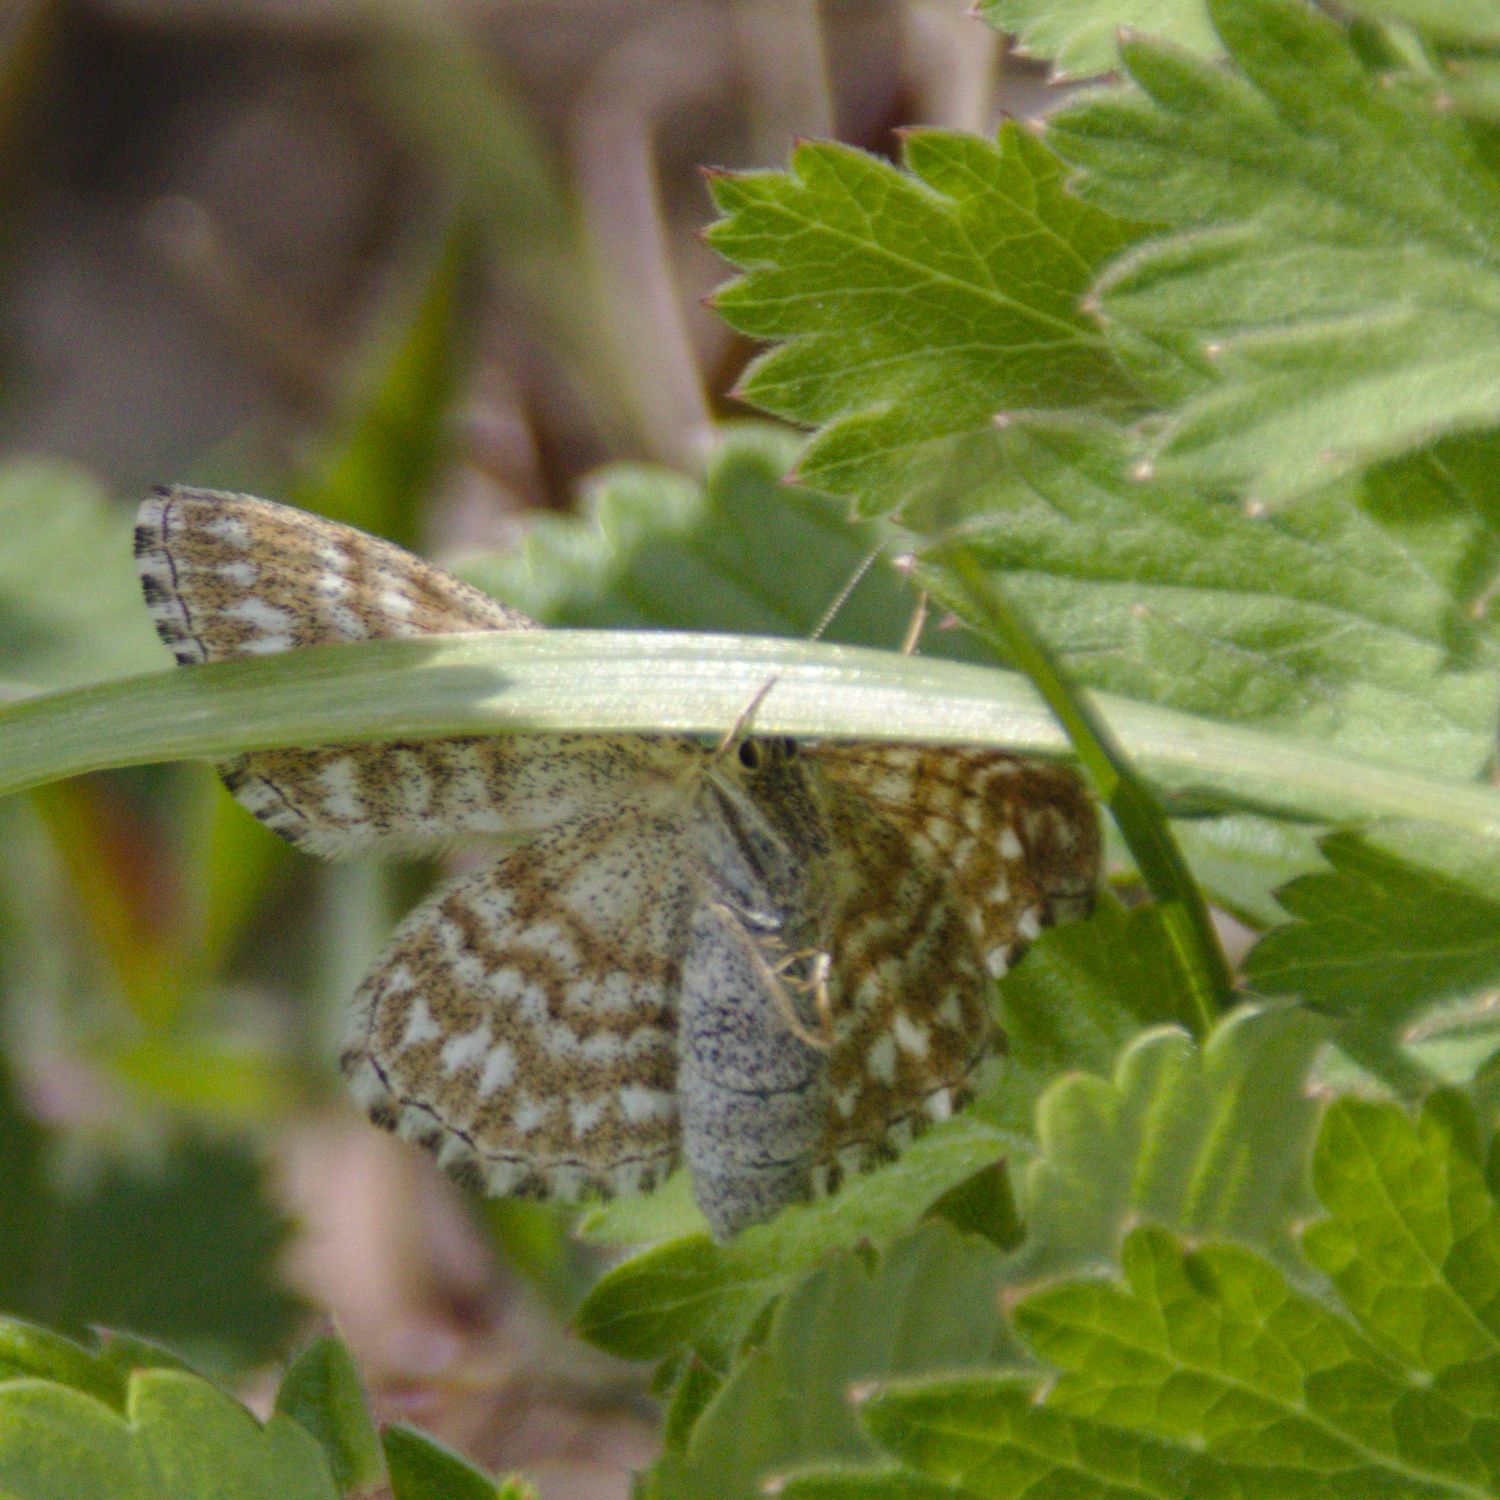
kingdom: Animalia
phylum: Arthropoda
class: Insecta
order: Lepidoptera
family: Geometridae
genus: Scopula
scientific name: Scopula immorata
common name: Lewes wave
